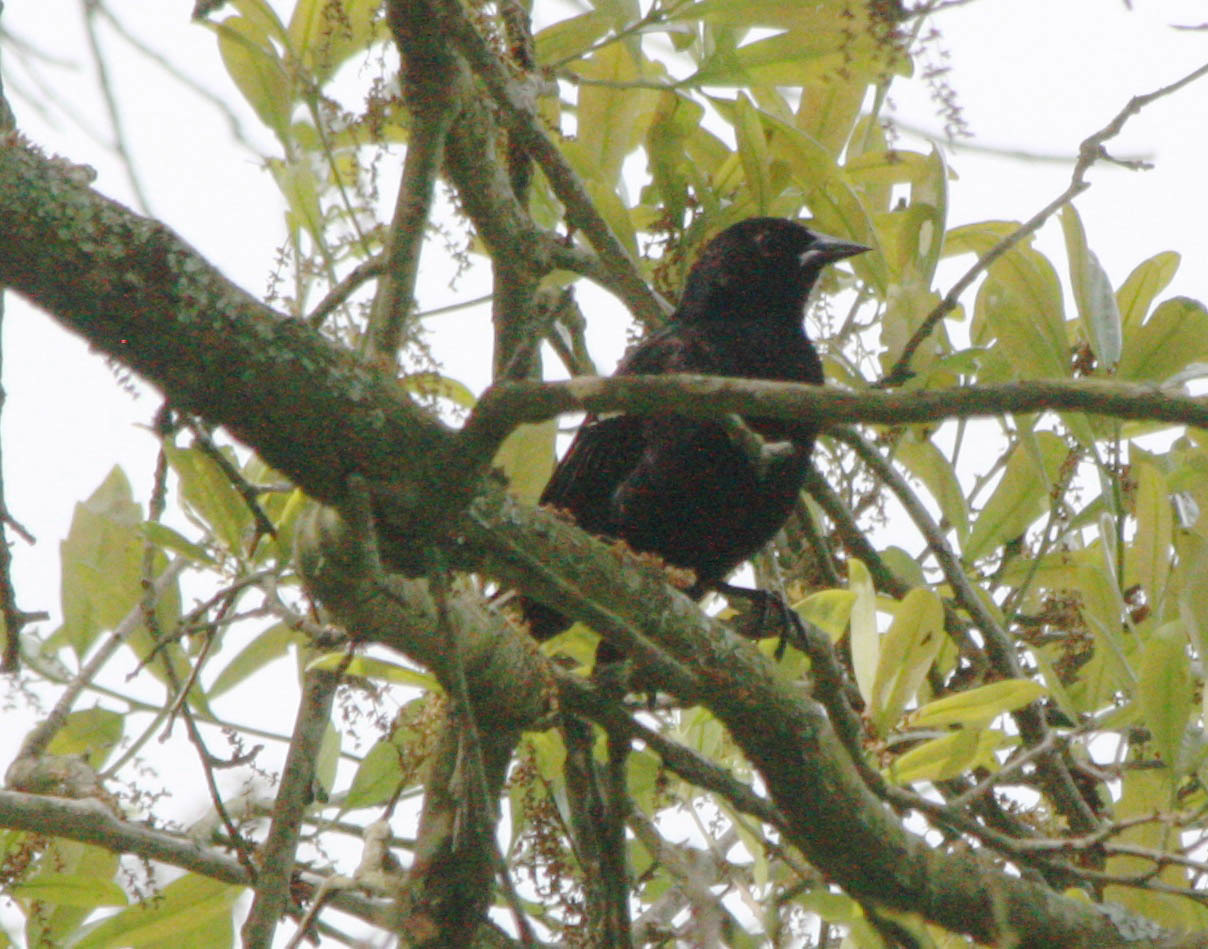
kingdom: Animalia
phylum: Chordata
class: Aves
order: Passeriformes
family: Icteridae
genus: Agelaius
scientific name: Agelaius phoeniceus
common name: Red-winged blackbird
